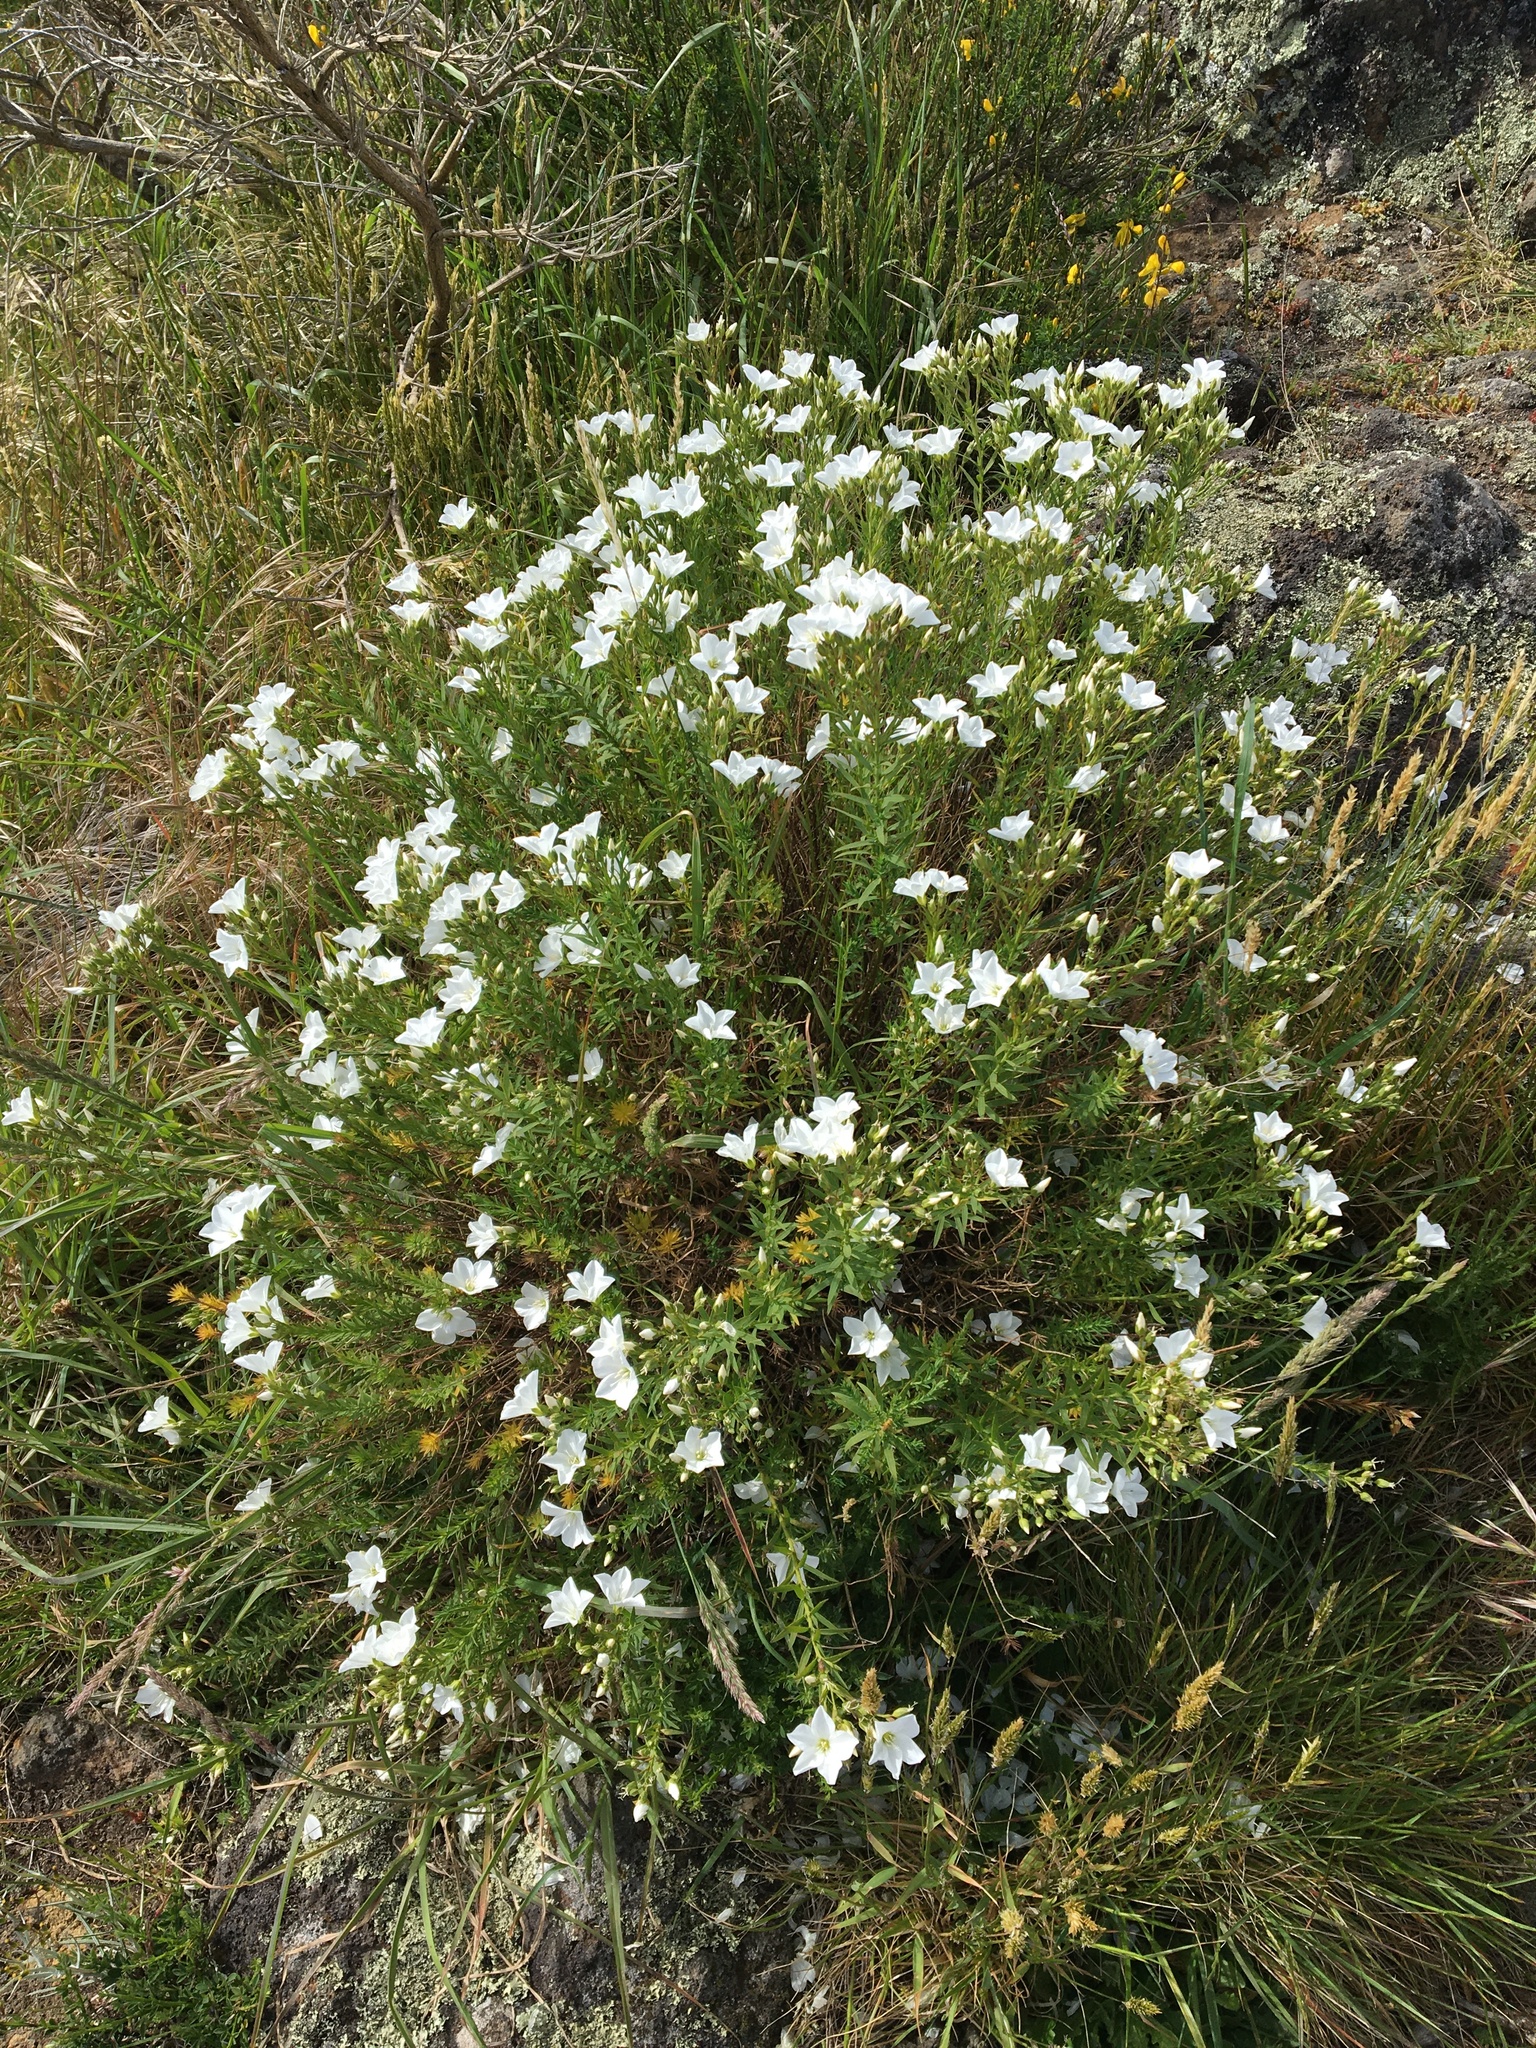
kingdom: Plantae
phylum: Tracheophyta
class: Magnoliopsida
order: Malpighiales
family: Linaceae
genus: Linum
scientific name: Linum monogynum
